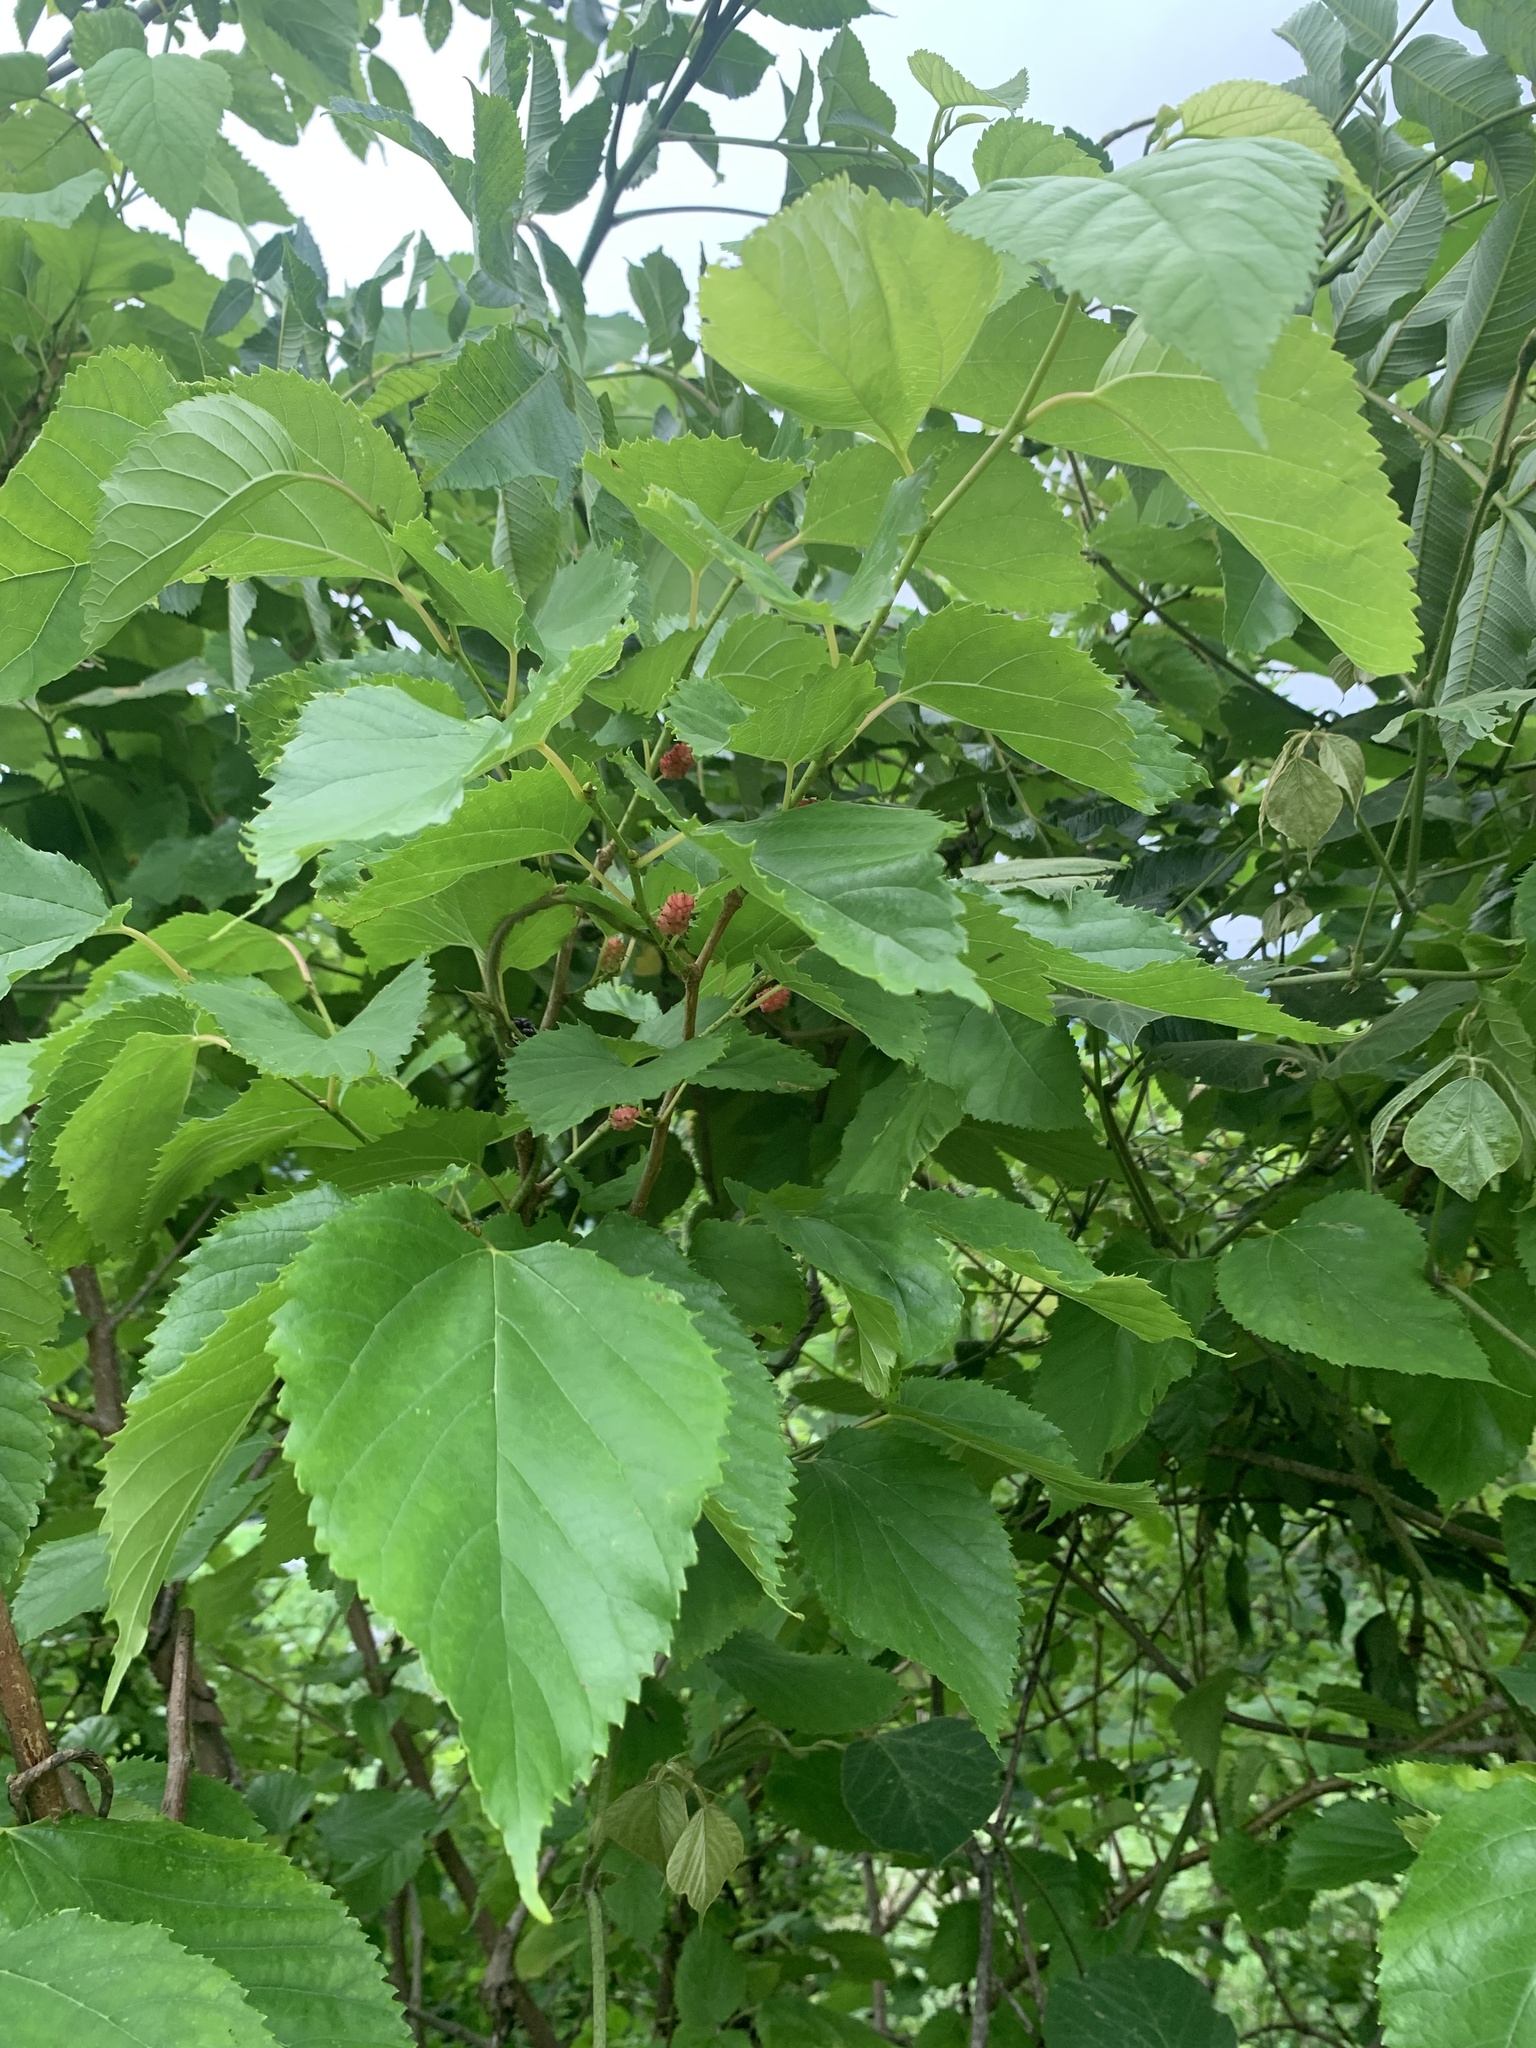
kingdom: Plantae
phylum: Tracheophyta
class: Magnoliopsida
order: Rosales
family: Moraceae
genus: Morus
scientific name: Morus indica
